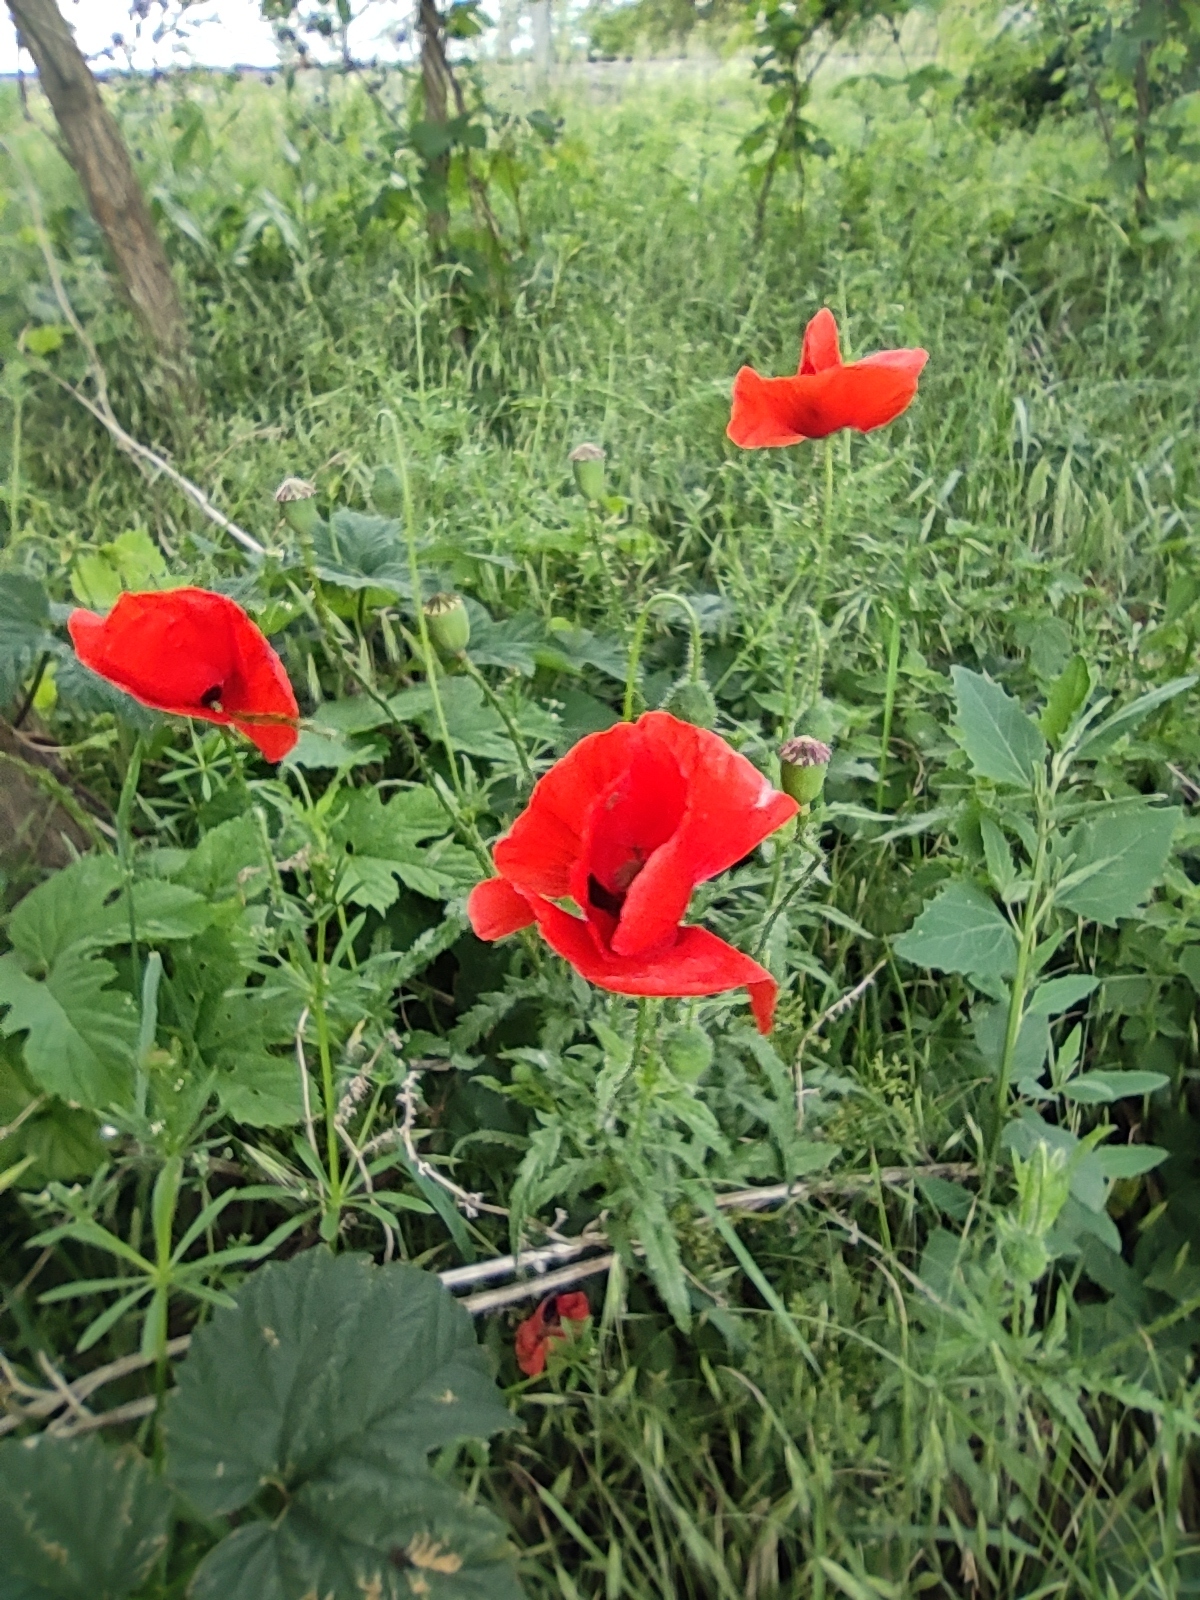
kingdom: Plantae
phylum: Tracheophyta
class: Magnoliopsida
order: Ranunculales
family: Papaveraceae
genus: Papaver
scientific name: Papaver rhoeas
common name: Corn poppy
